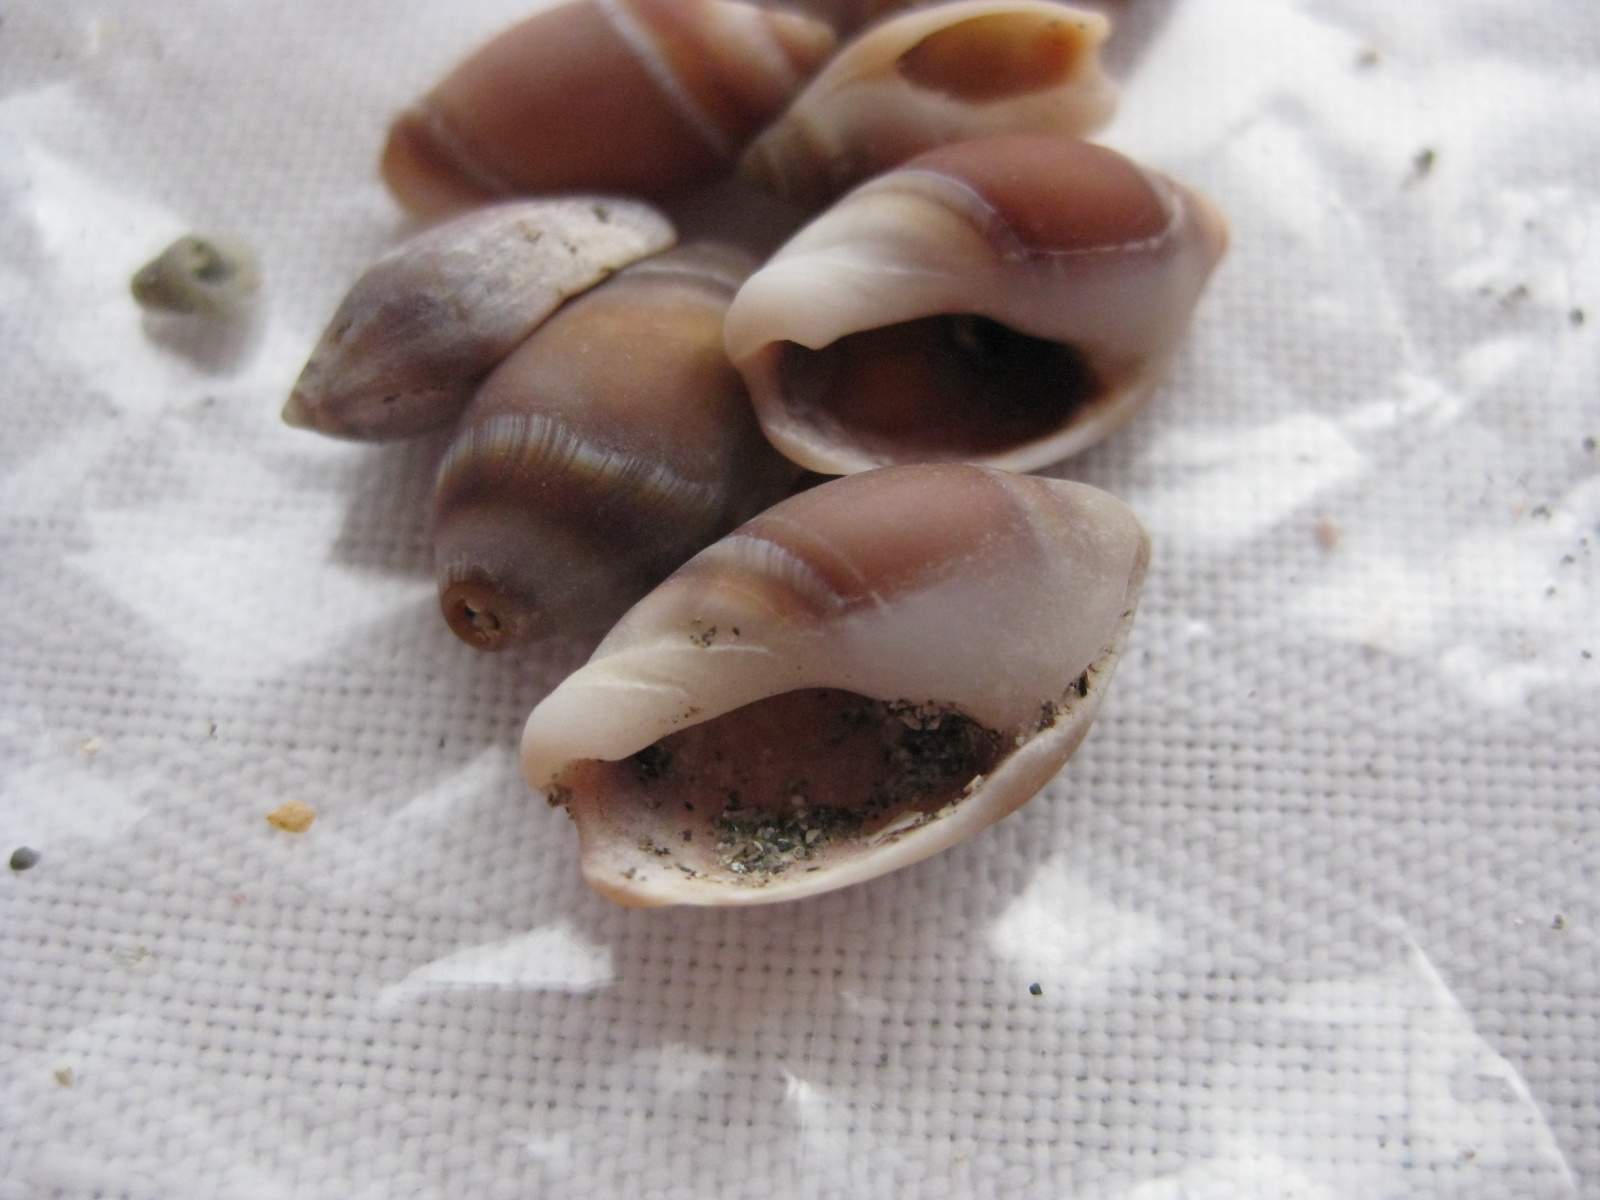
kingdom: Animalia
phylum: Mollusca
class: Gastropoda
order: Neogastropoda
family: Ancillariidae
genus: Amalda
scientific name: Amalda depressa
